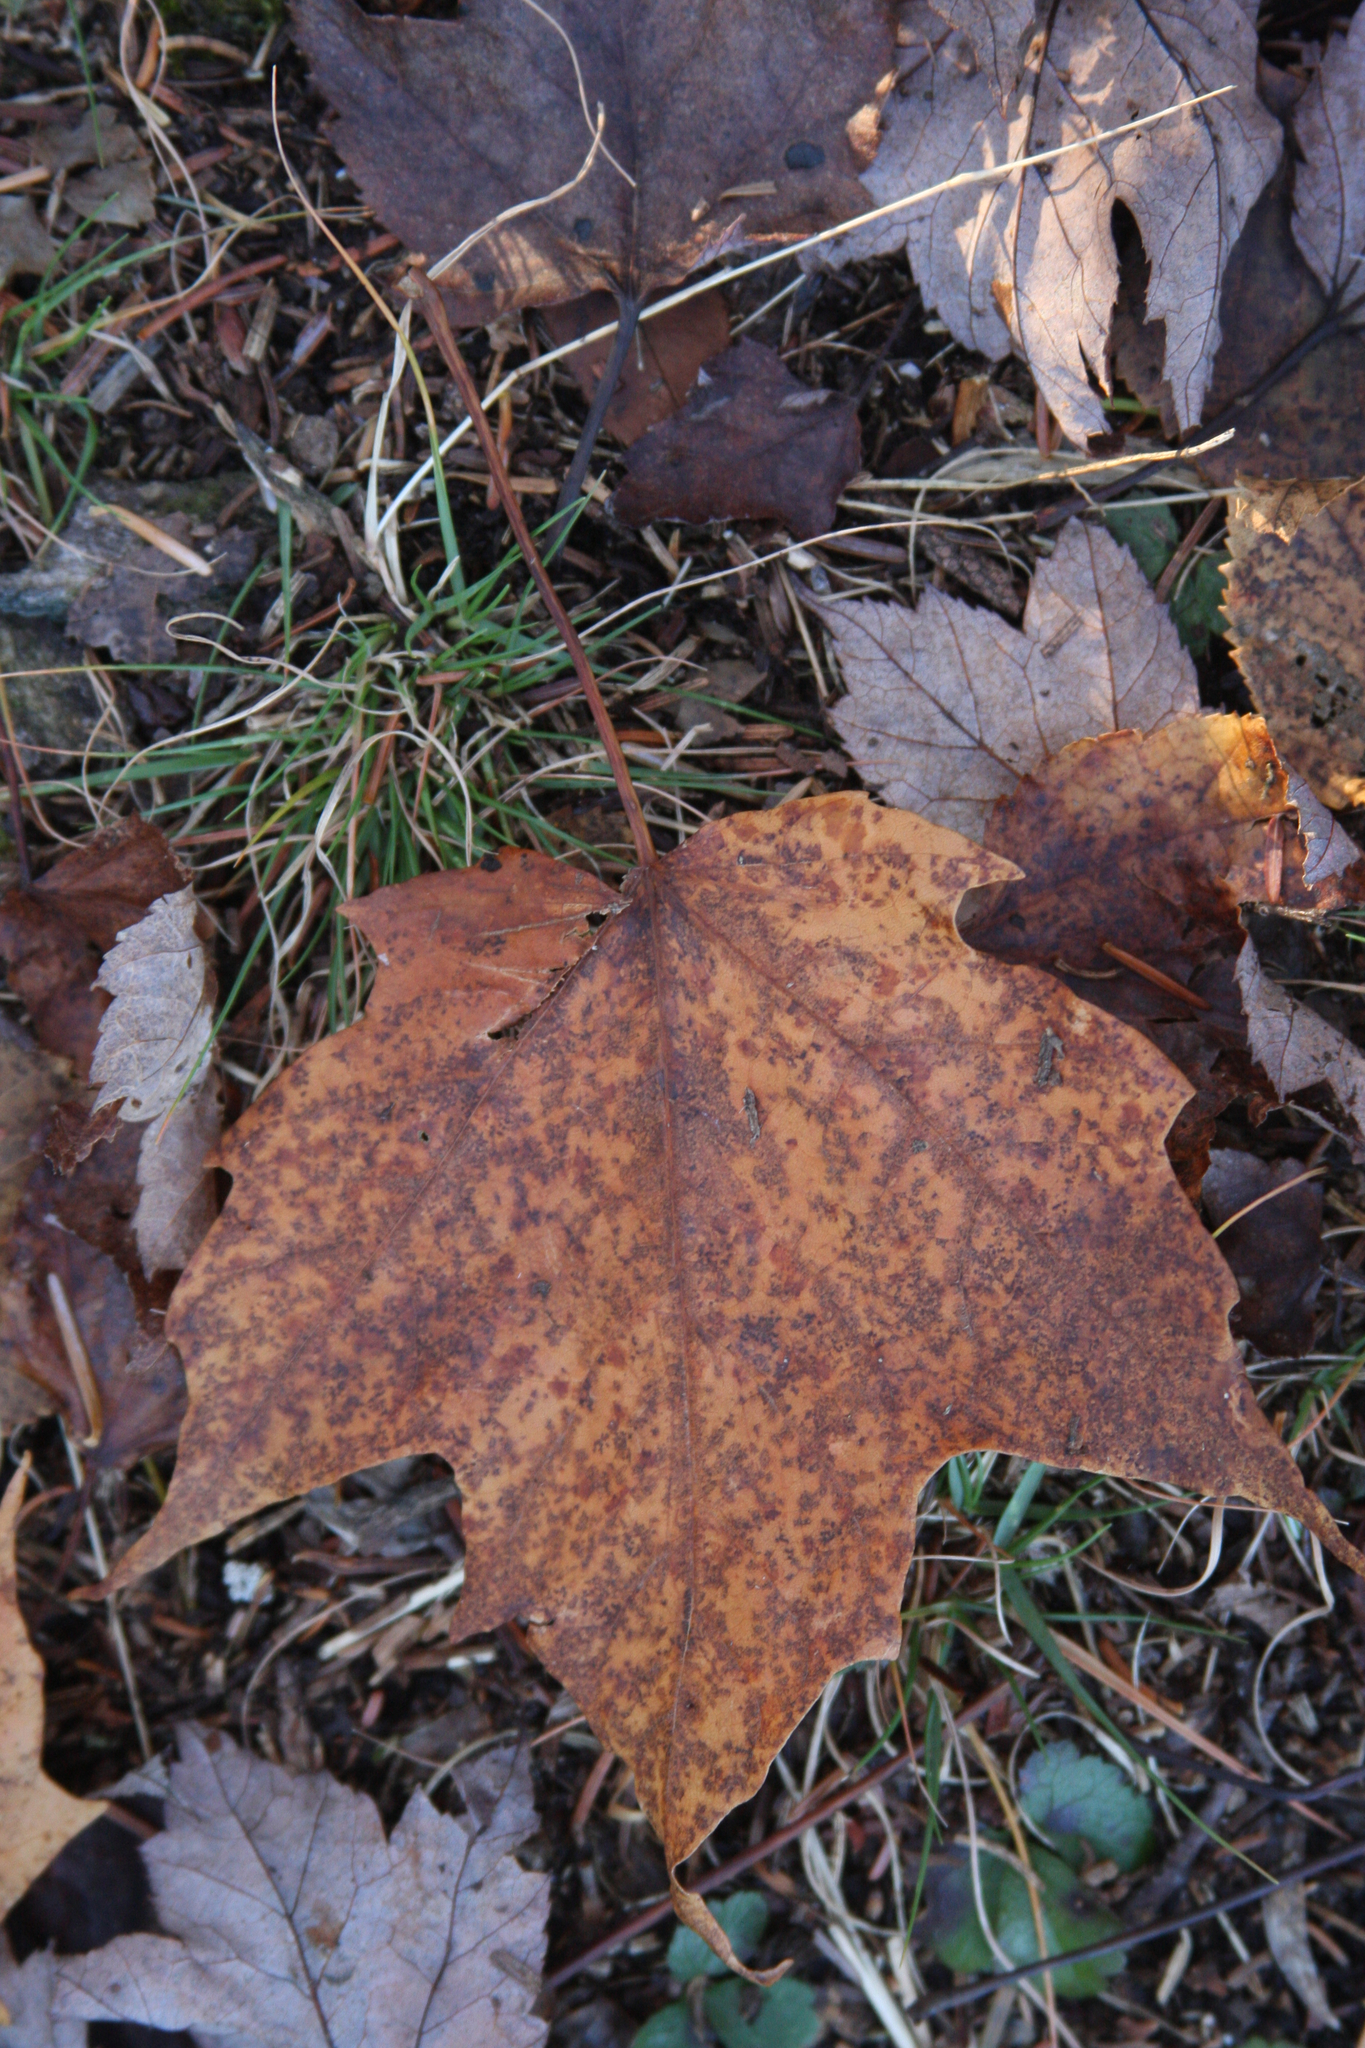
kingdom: Plantae
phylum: Tracheophyta
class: Magnoliopsida
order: Sapindales
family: Sapindaceae
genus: Acer
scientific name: Acer rubrum
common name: Red maple
